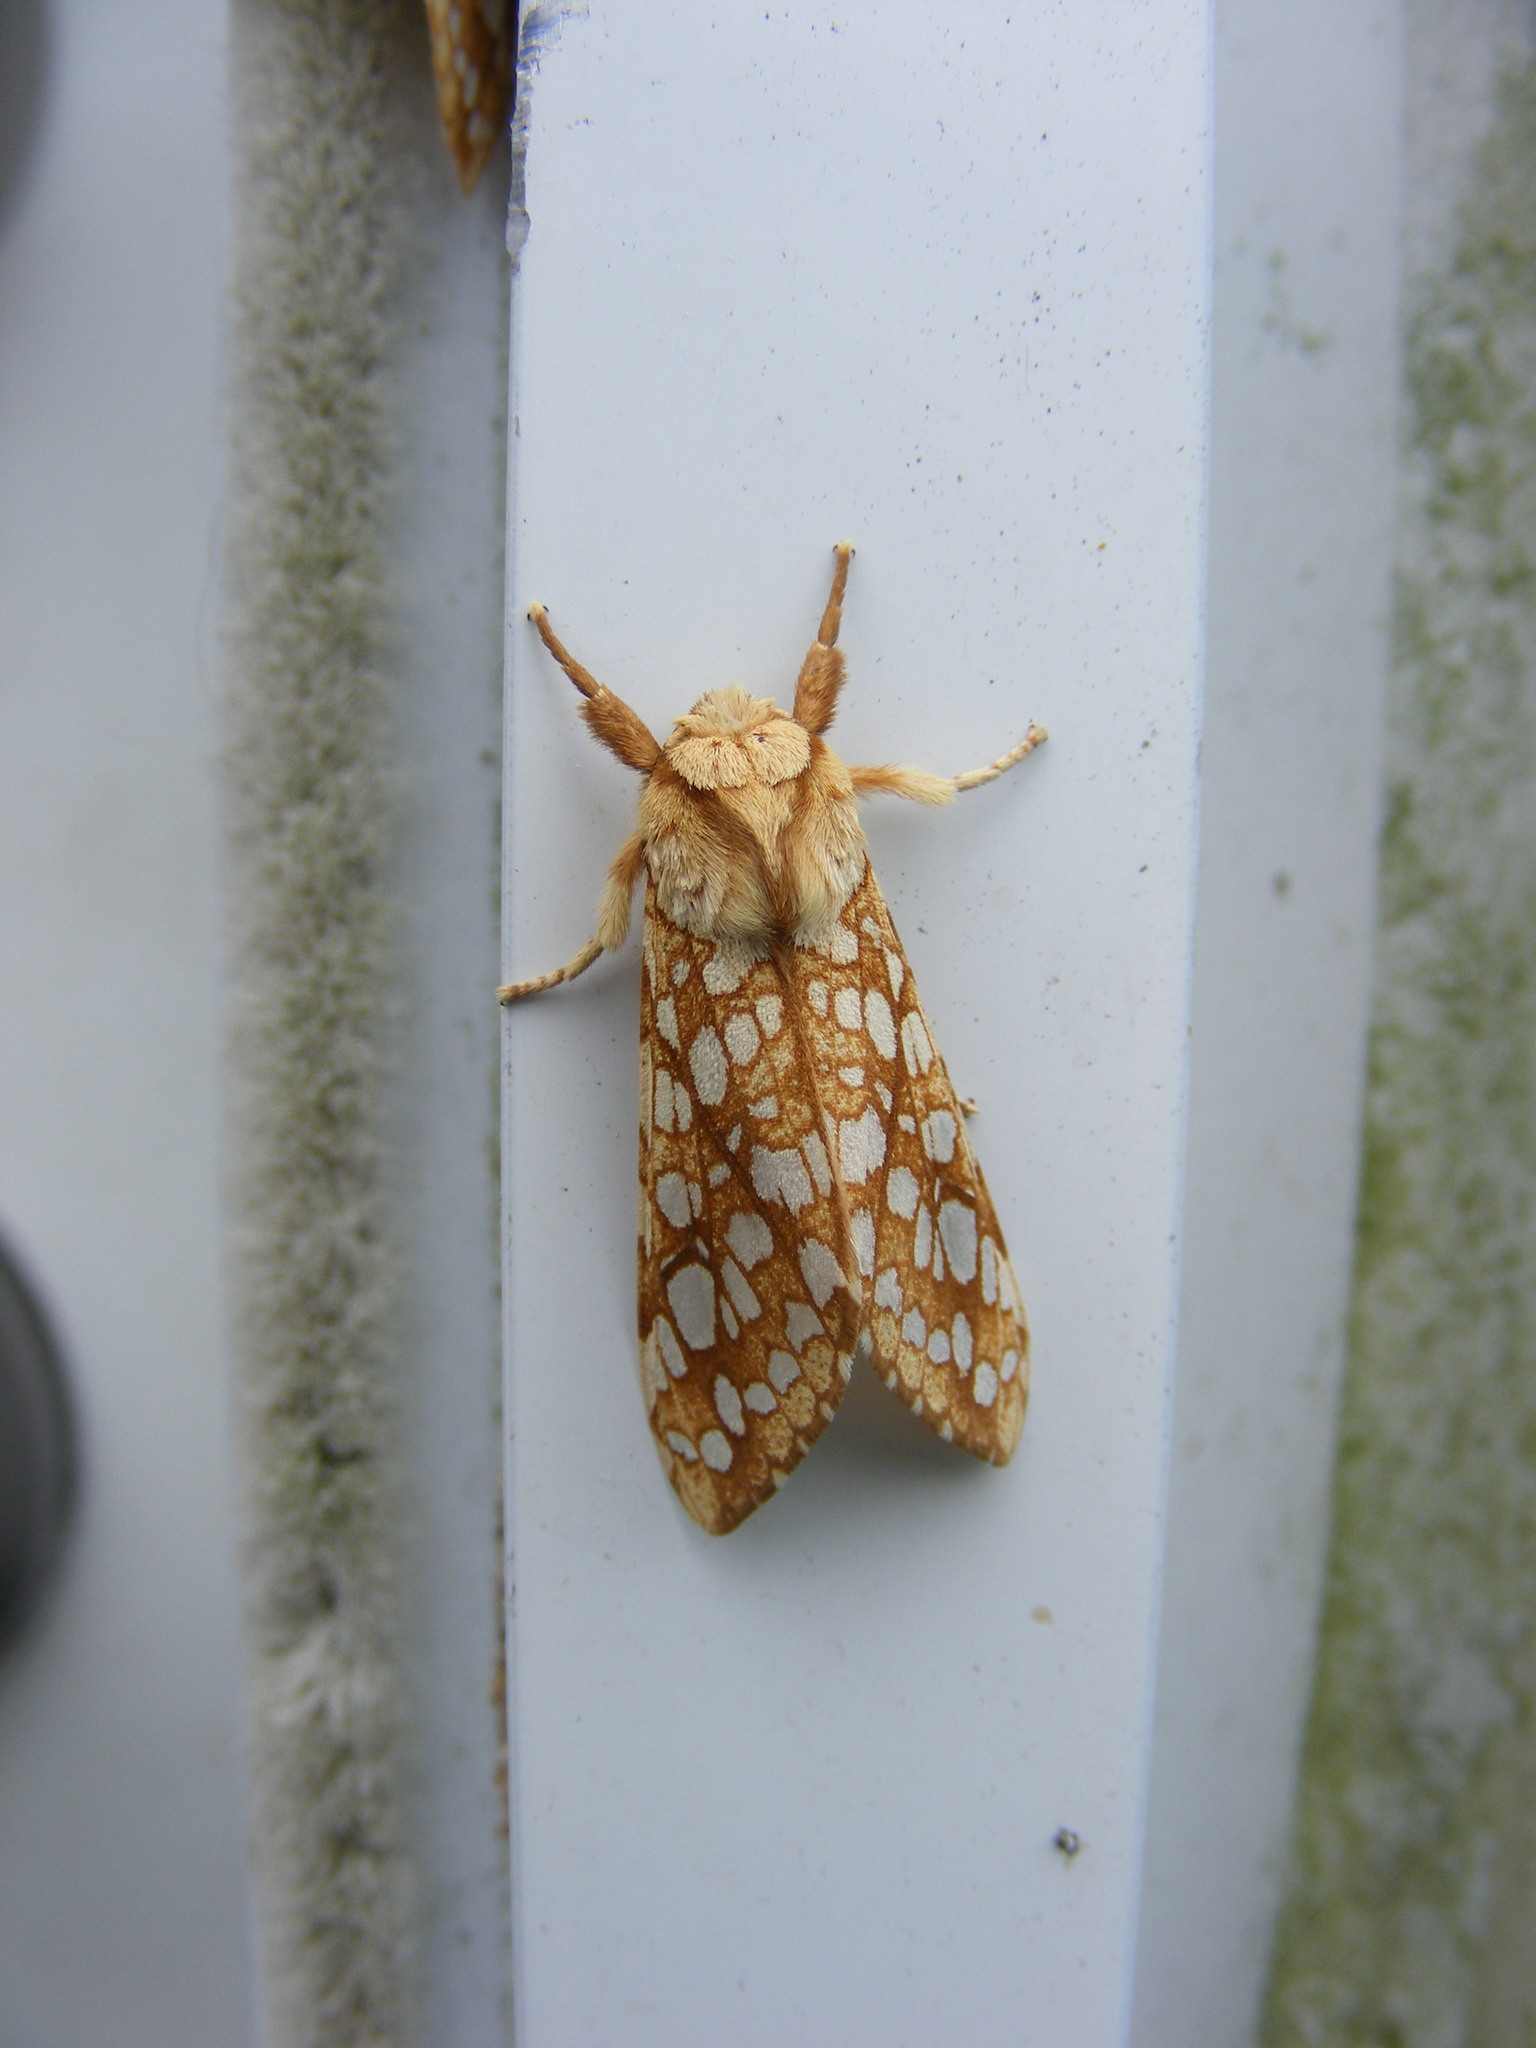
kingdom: Animalia
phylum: Arthropoda
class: Insecta
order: Lepidoptera
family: Erebidae
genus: Lophocampa
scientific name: Lophocampa caryae
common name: Hickory tussock moth
